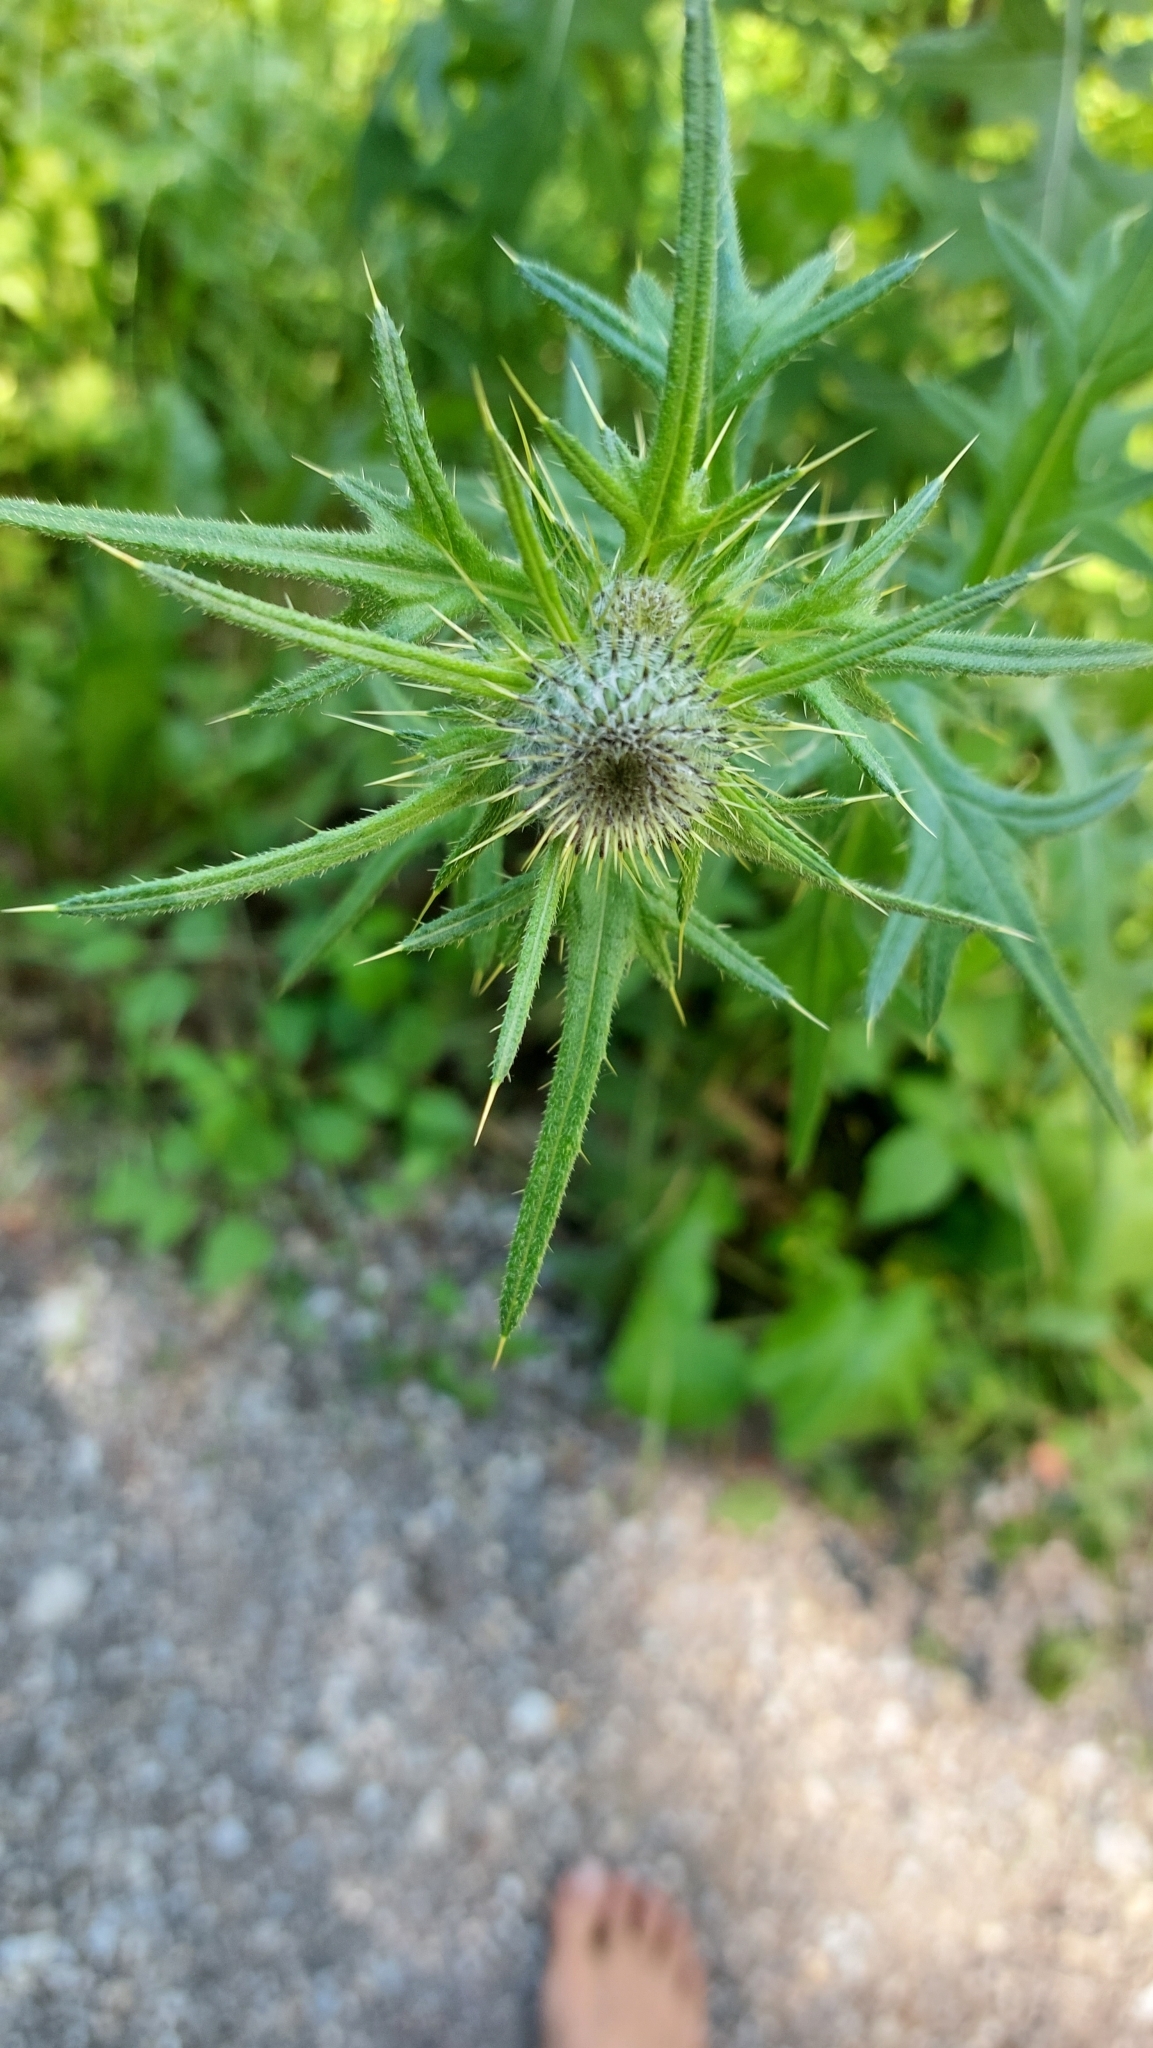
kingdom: Plantae
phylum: Tracheophyta
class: Magnoliopsida
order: Asterales
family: Asteraceae
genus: Cirsium
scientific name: Cirsium vulgare
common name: Bull thistle
